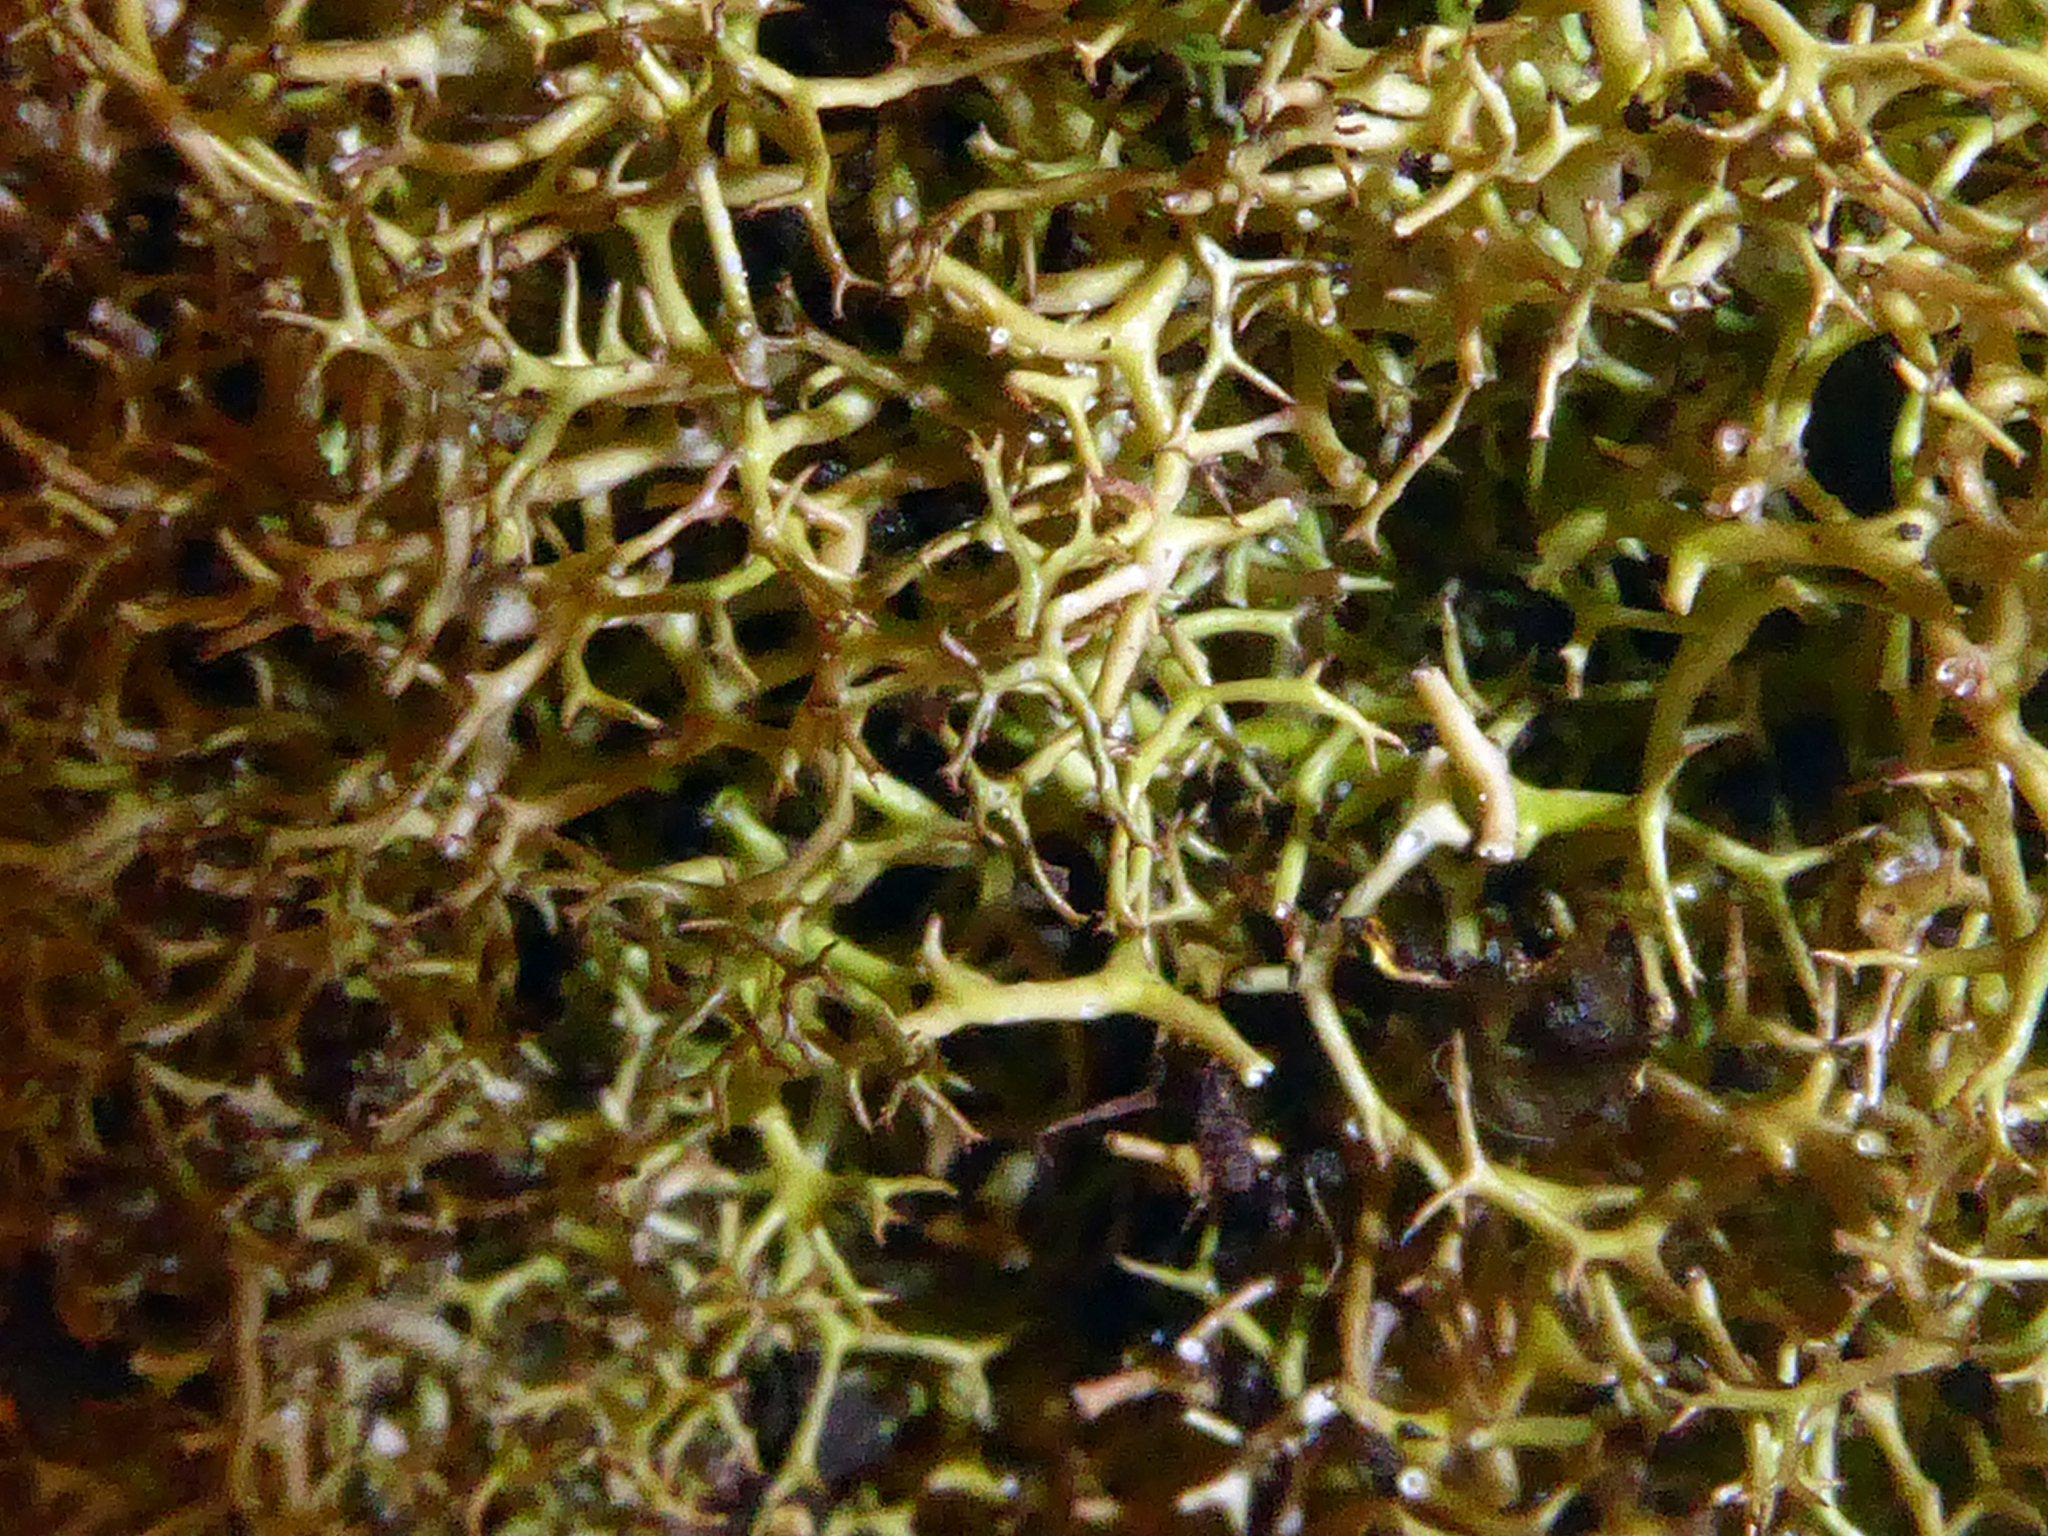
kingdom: Fungi
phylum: Ascomycota
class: Lecanoromycetes
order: Lecanorales
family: Cladoniaceae
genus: Cladia
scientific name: Cladia gorgonea
